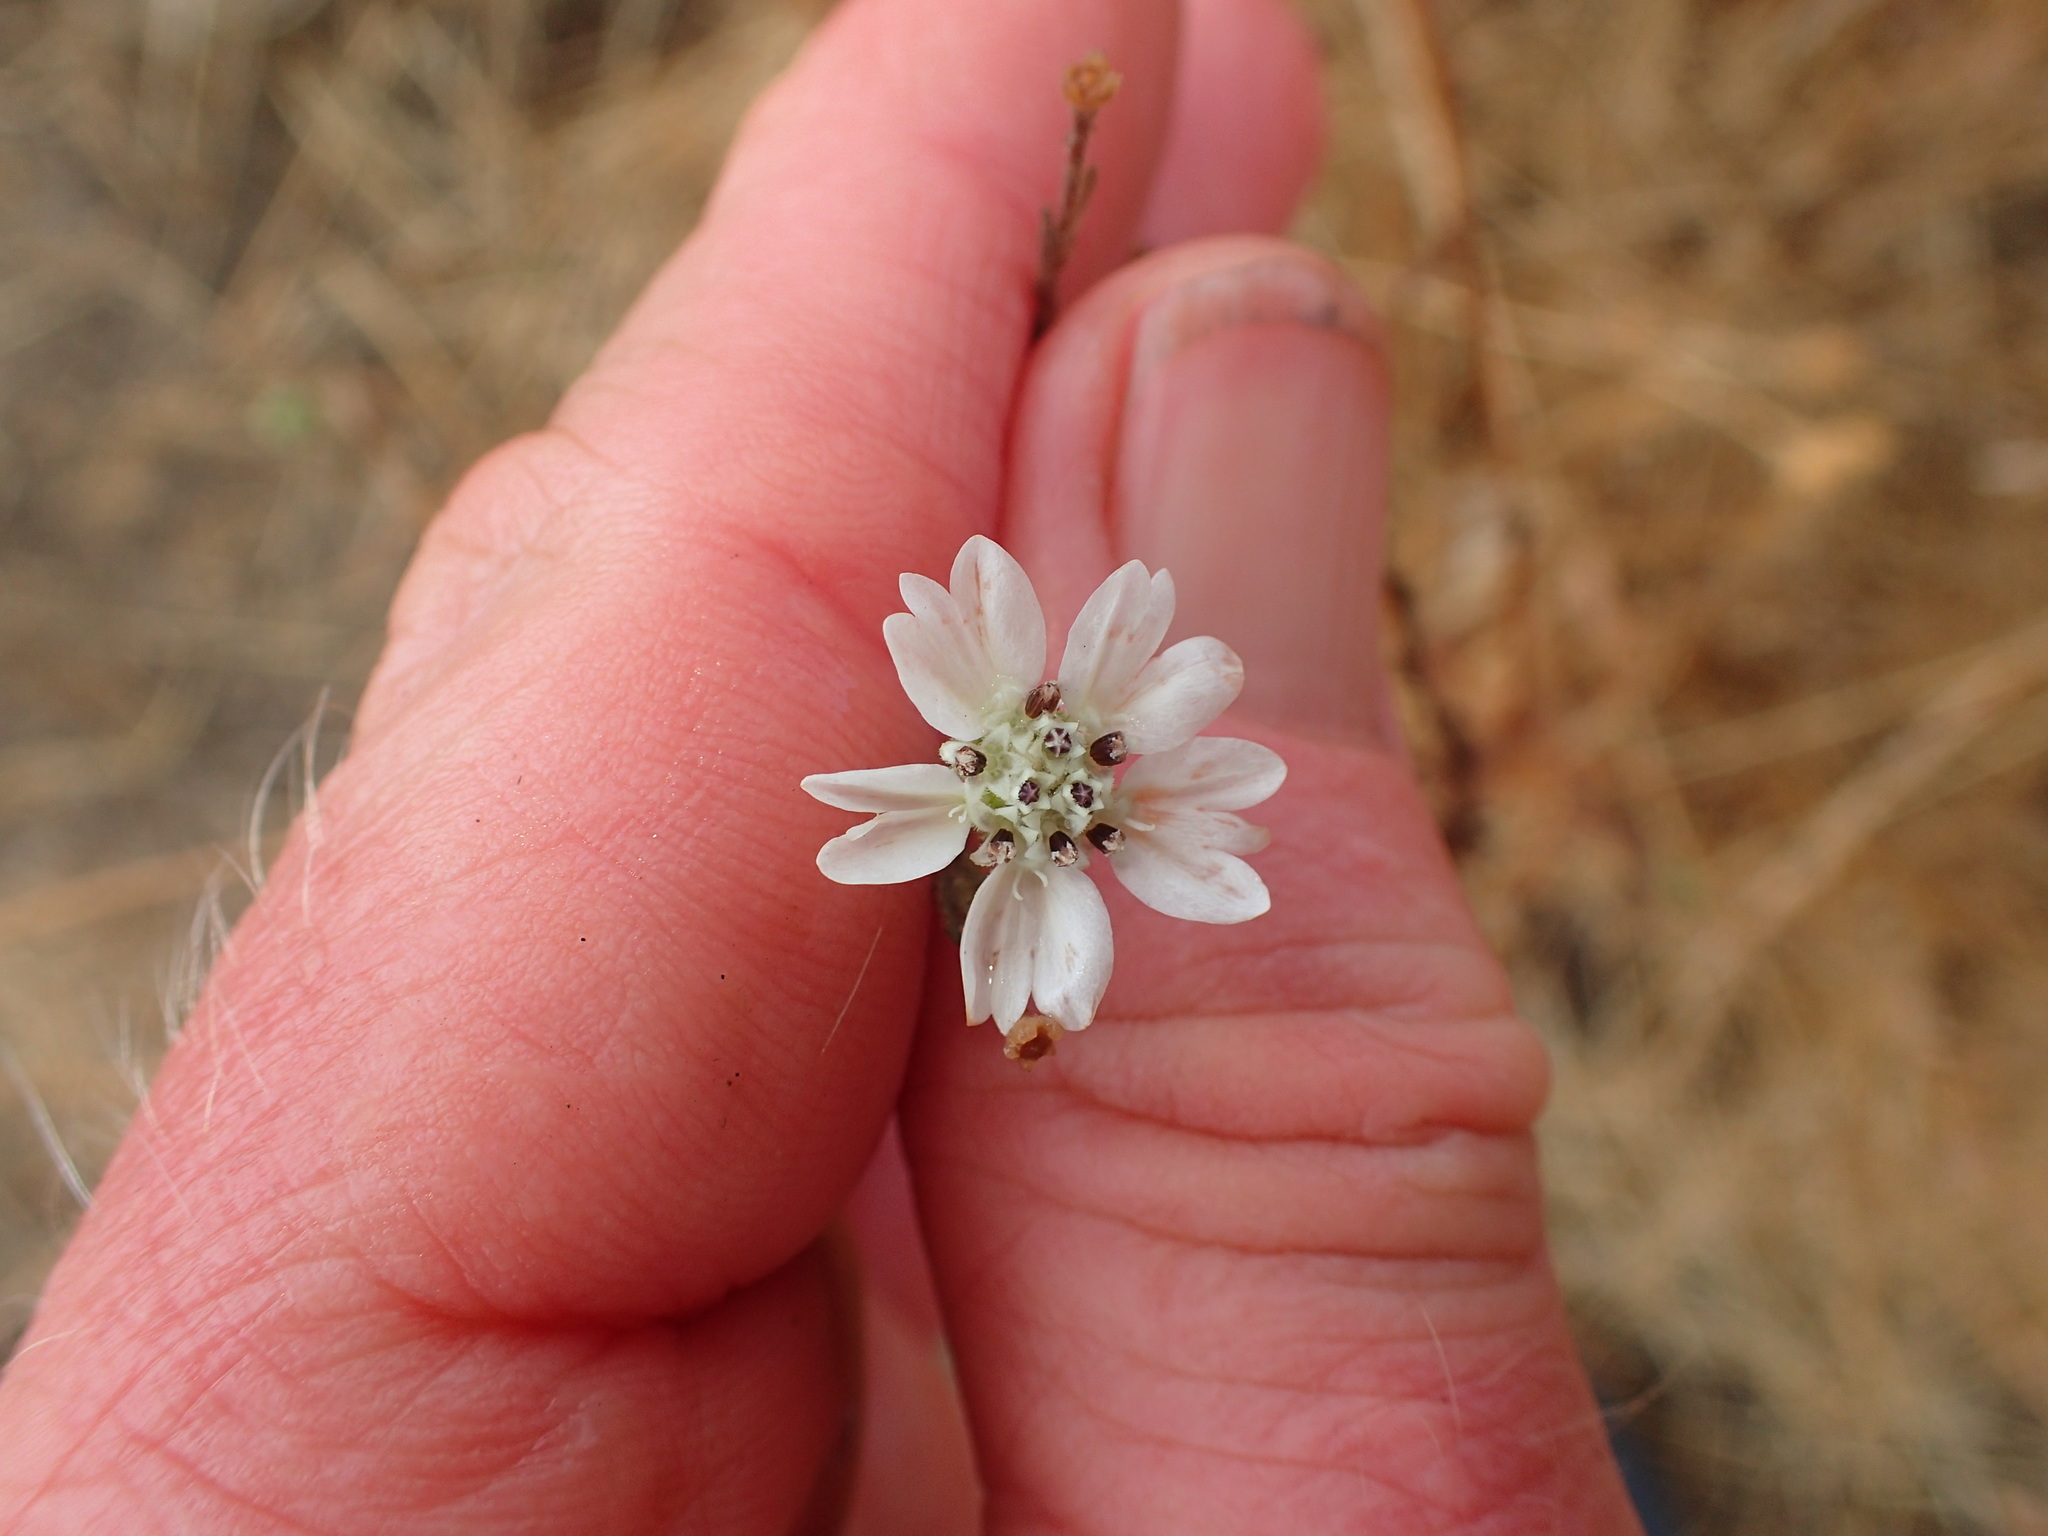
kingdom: Plantae
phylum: Tracheophyta
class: Magnoliopsida
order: Asterales
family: Asteraceae
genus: Hemizonia
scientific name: Hemizonia congesta
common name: Hayfield tarweed
